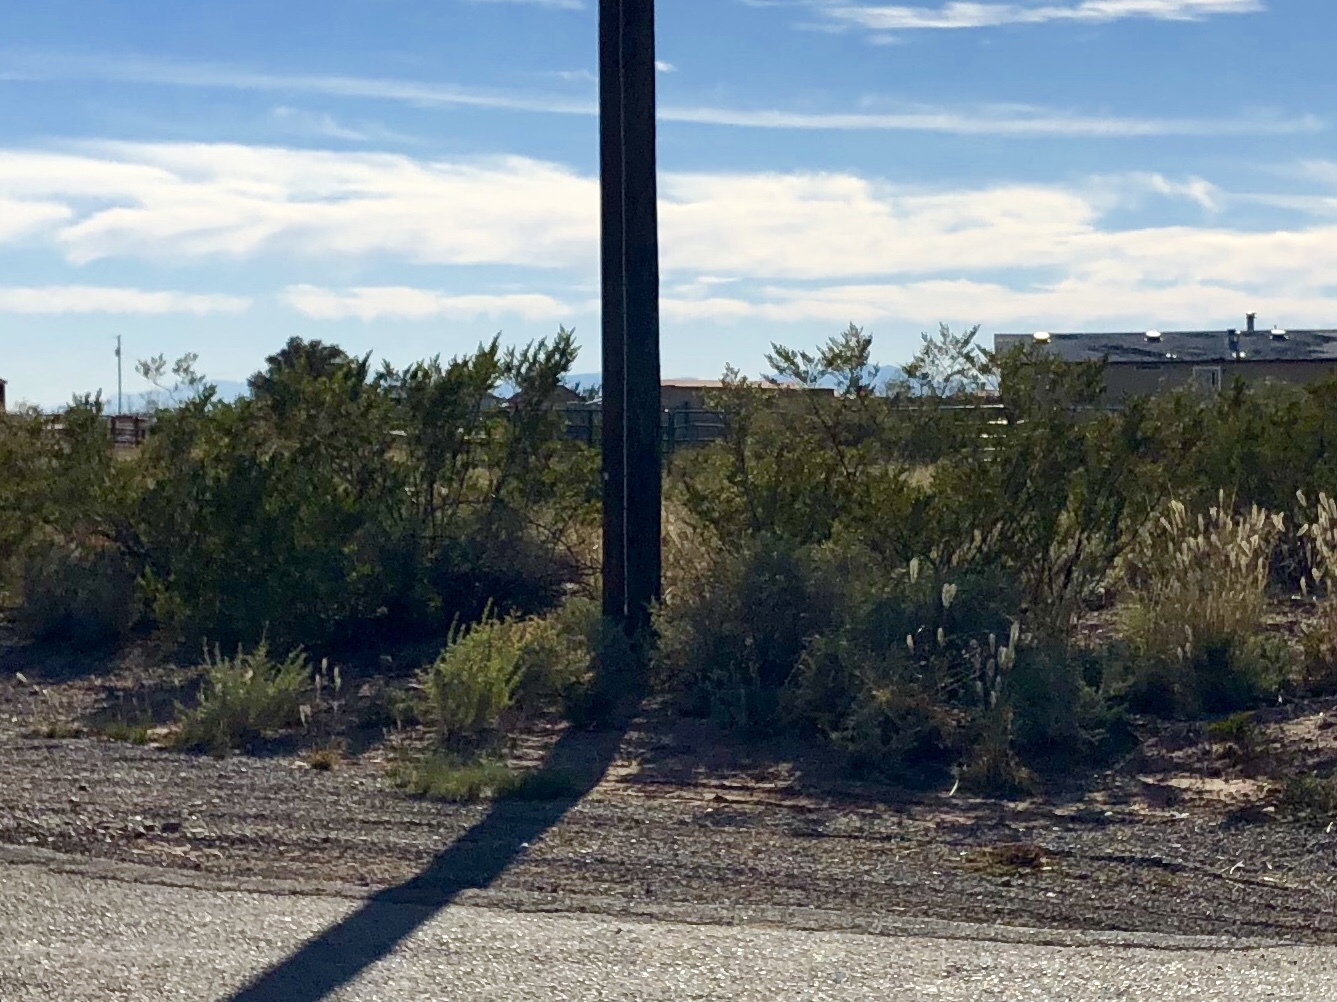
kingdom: Plantae
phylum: Tracheophyta
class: Magnoliopsida
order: Zygophyllales
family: Zygophyllaceae
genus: Larrea
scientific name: Larrea tridentata
